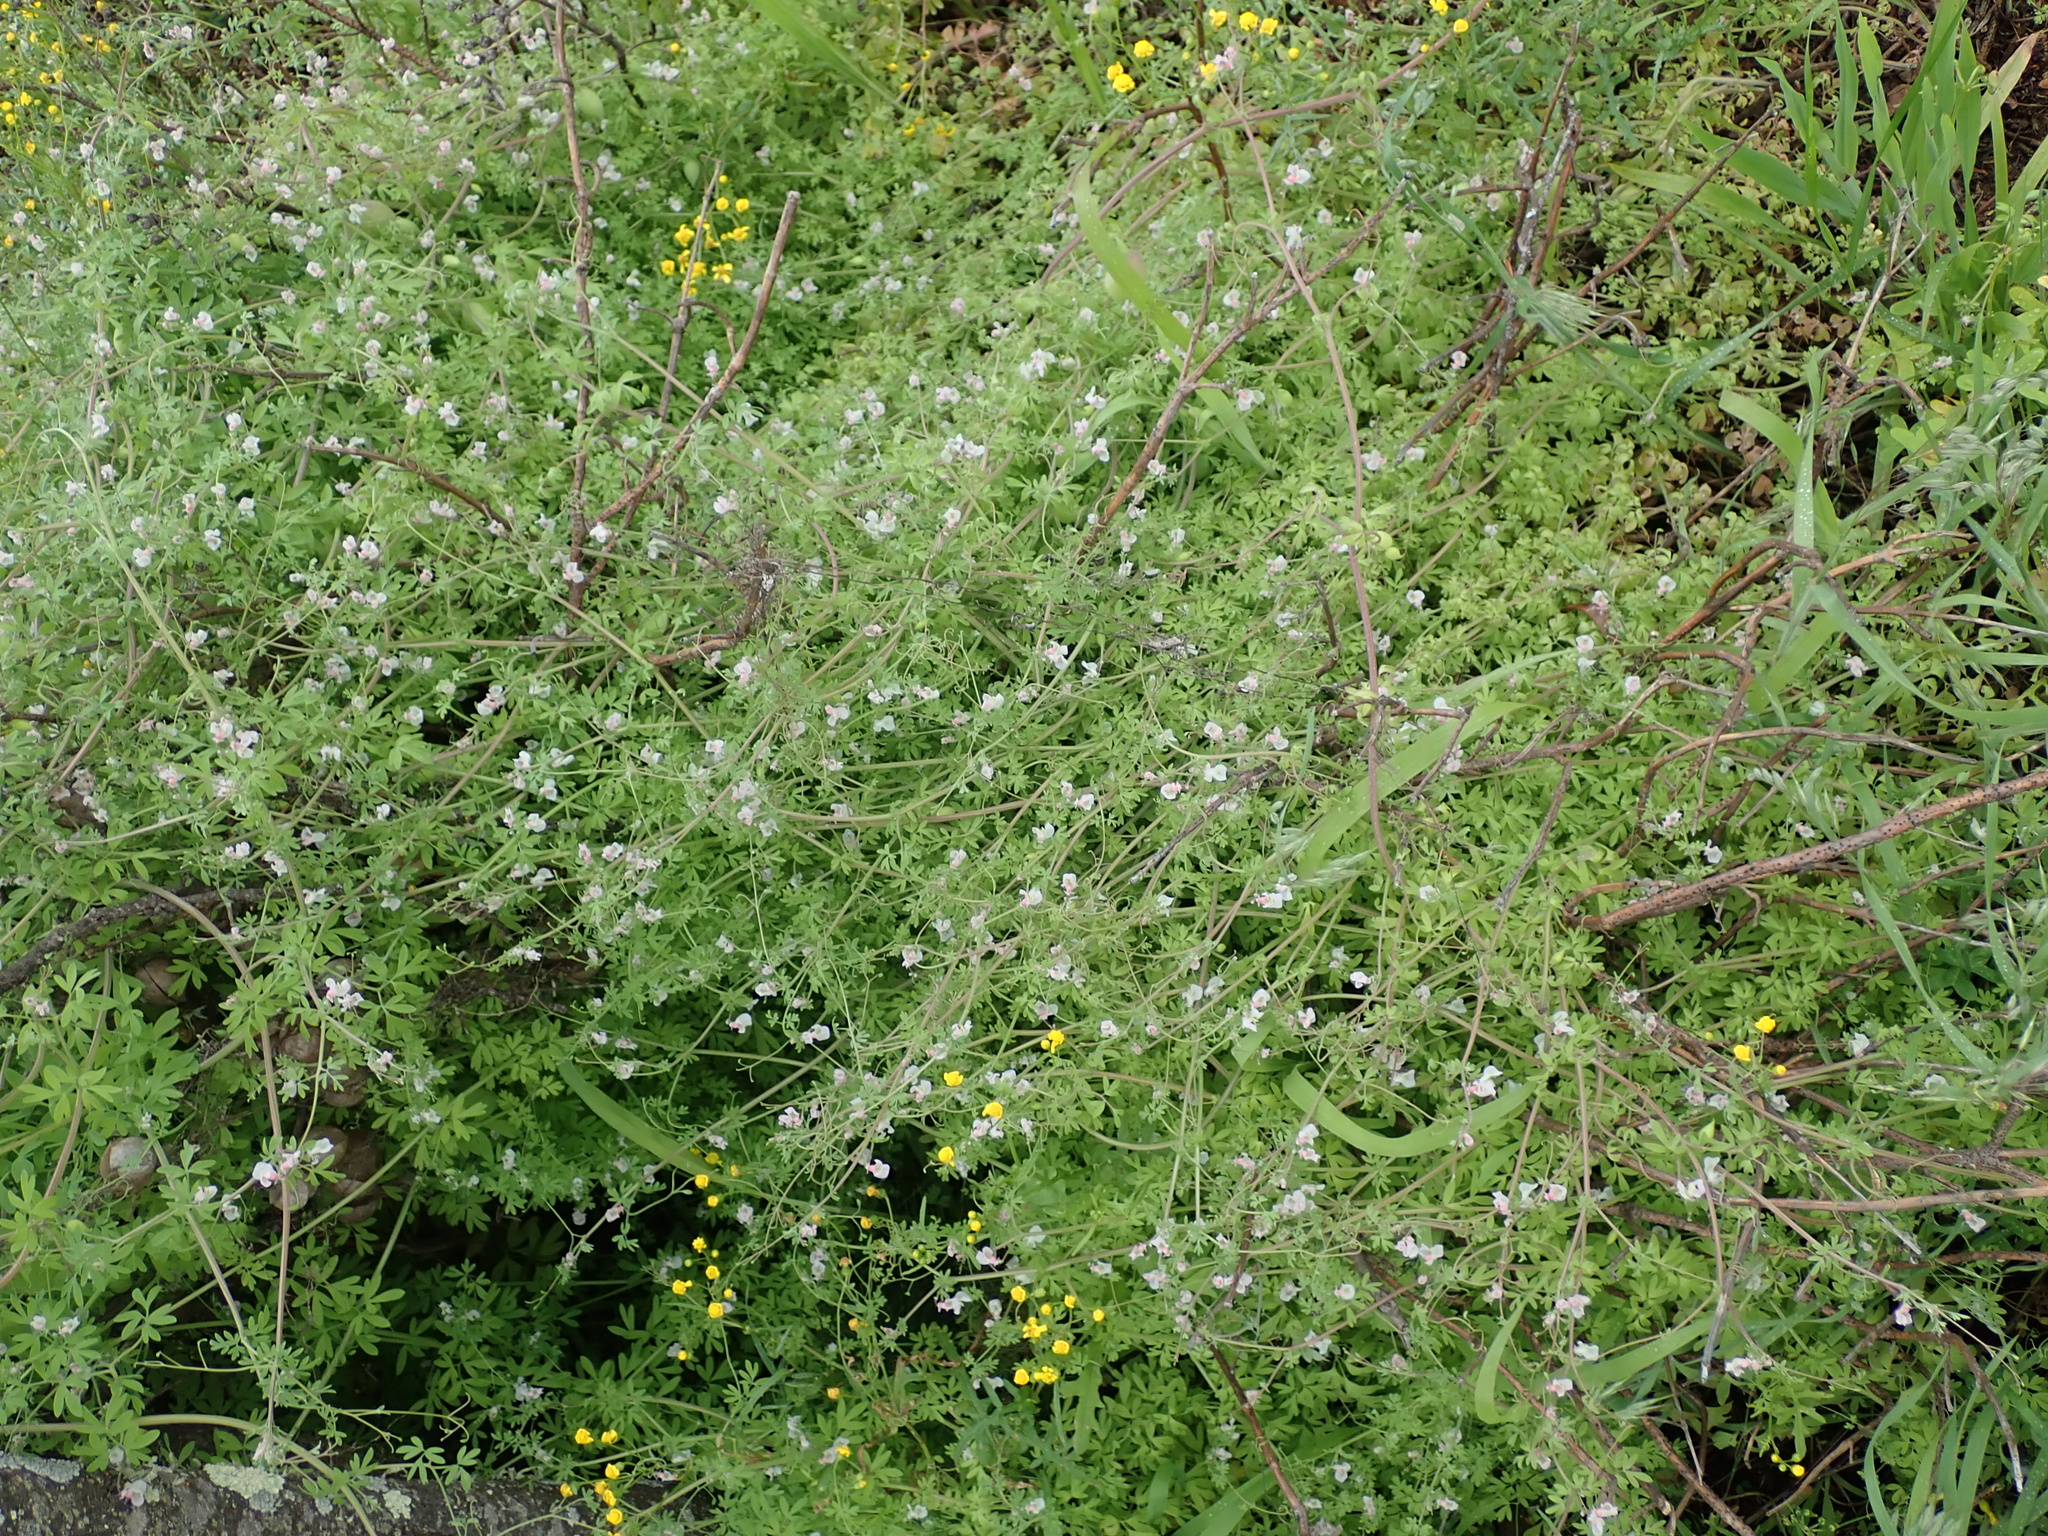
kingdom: Plantae
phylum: Tracheophyta
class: Magnoliopsida
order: Ranunculales
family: Papaveraceae
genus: Cysticapnos
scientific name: Cysticapnos vesicaria
